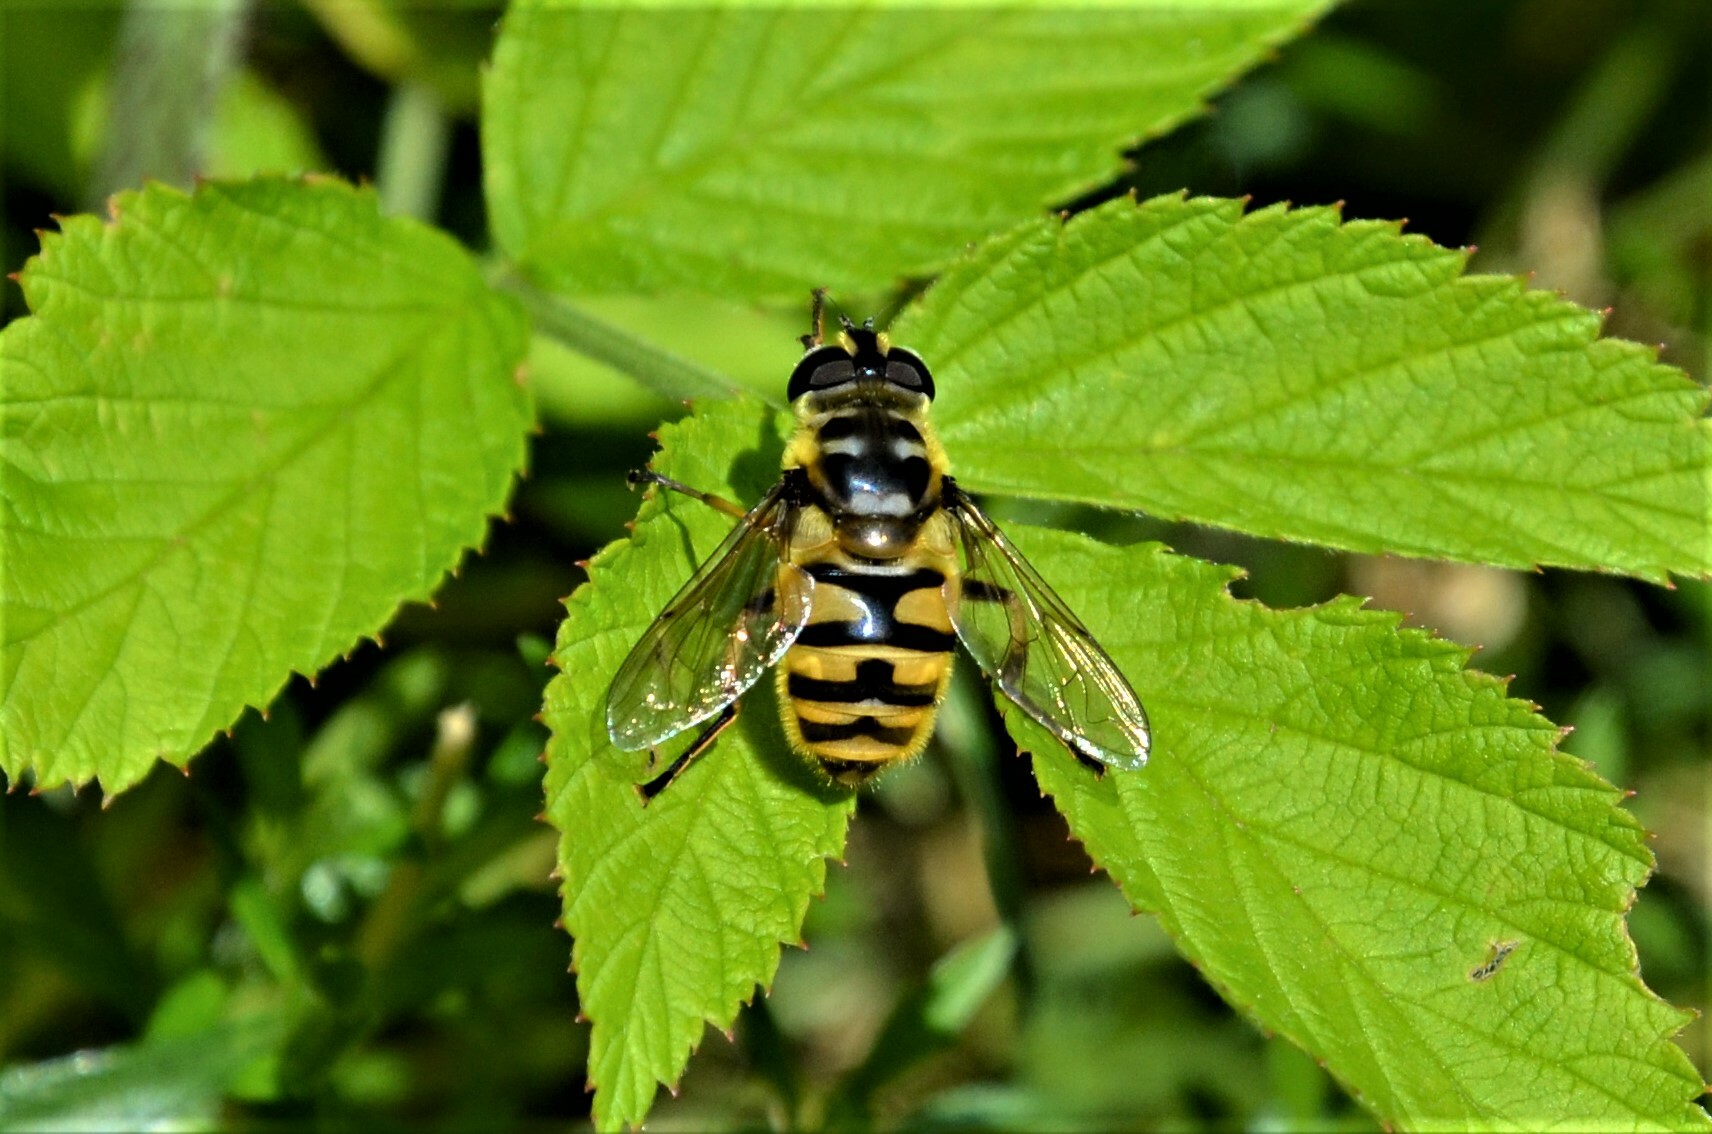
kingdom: Animalia
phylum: Arthropoda
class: Insecta
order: Diptera
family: Syrphidae
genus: Myathropa
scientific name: Myathropa florea
